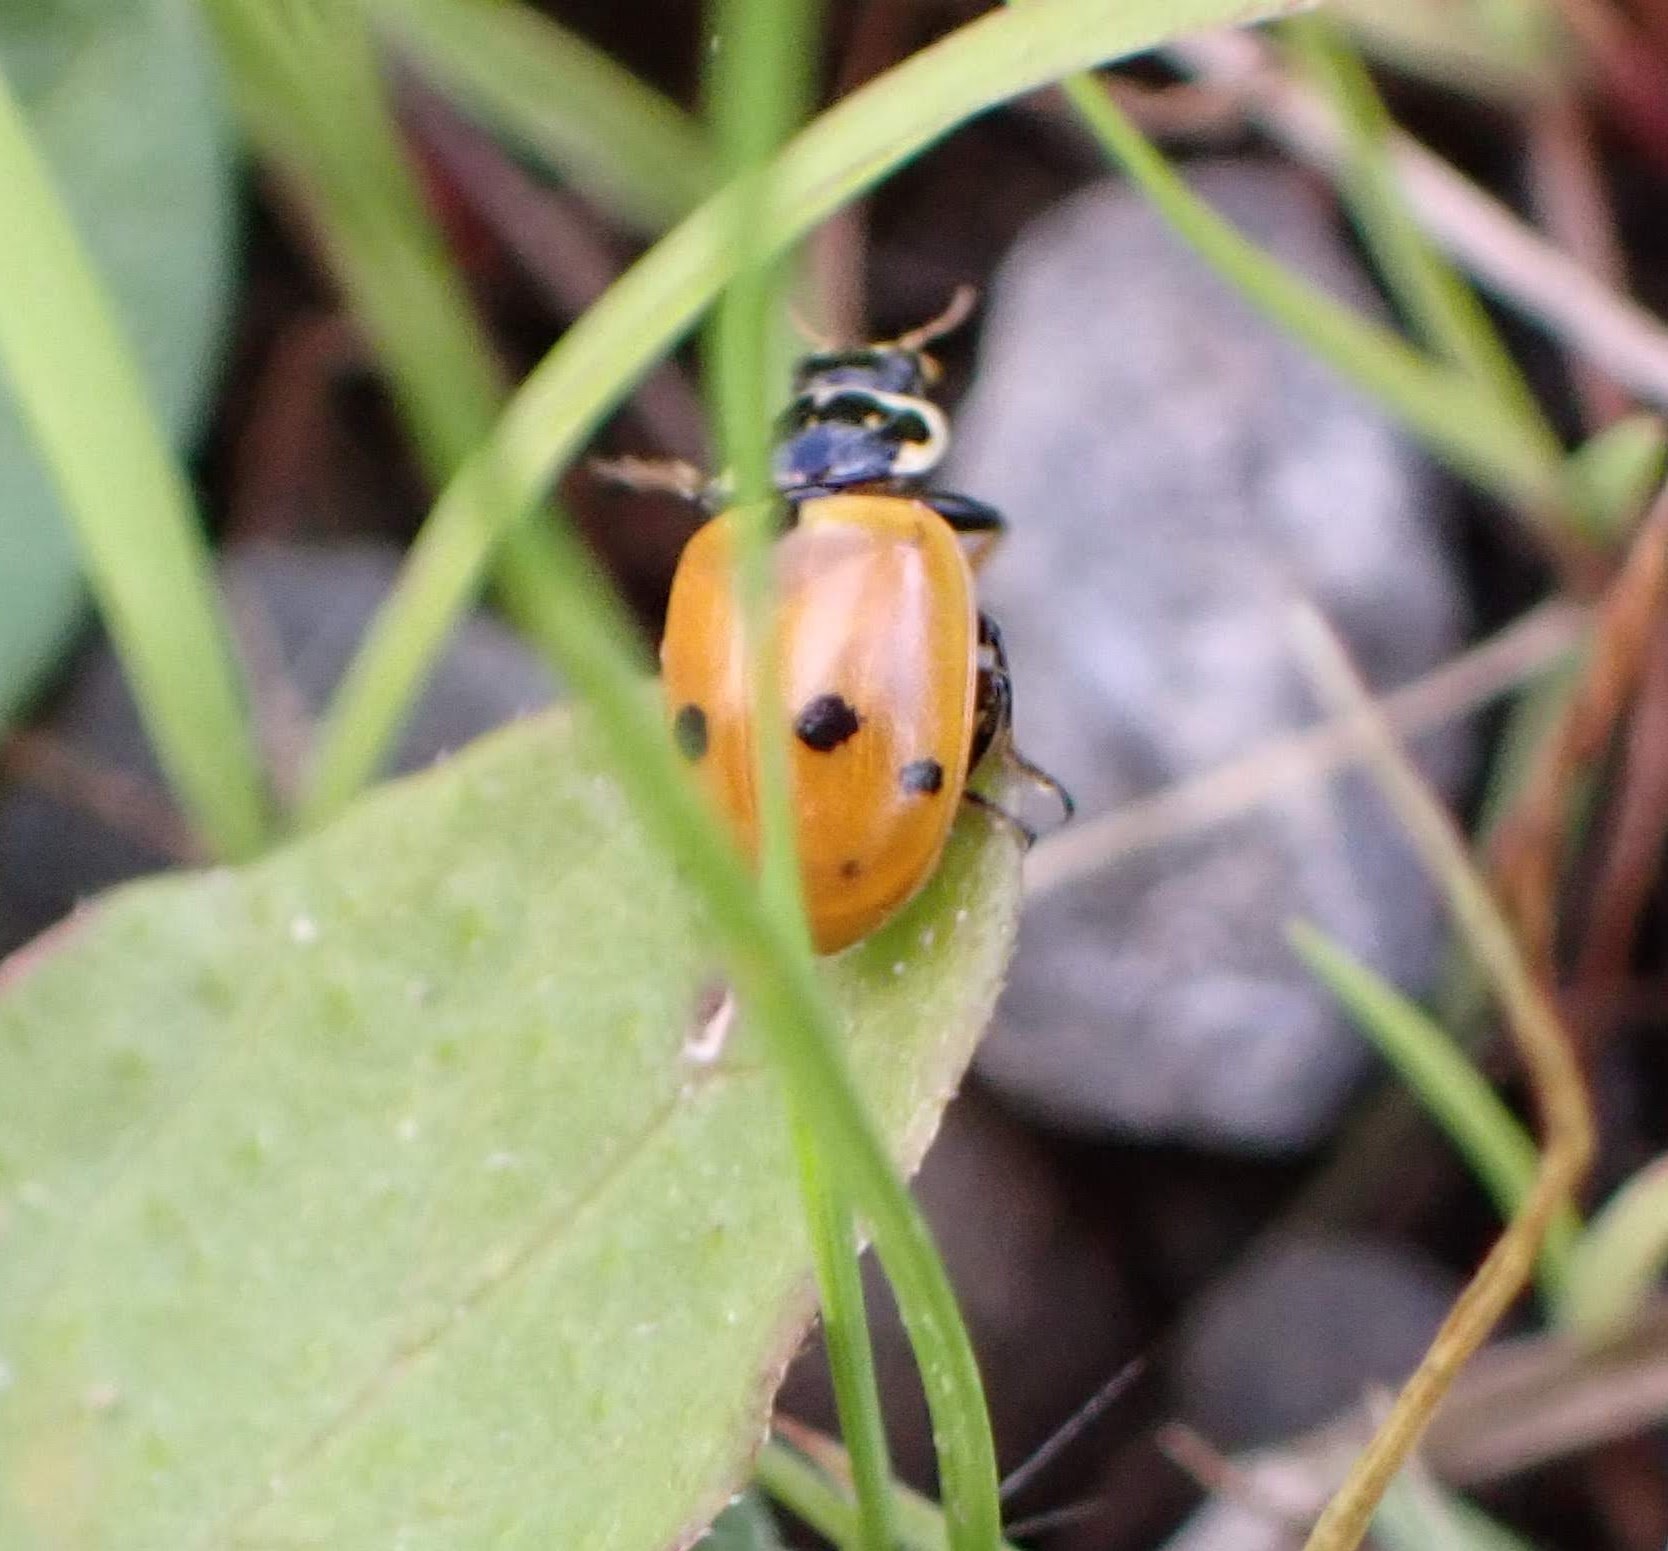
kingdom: Animalia
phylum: Arthropoda
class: Insecta
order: Coleoptera
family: Coccinellidae
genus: Hippodamia
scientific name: Hippodamia variegata
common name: Ladybird beetle
